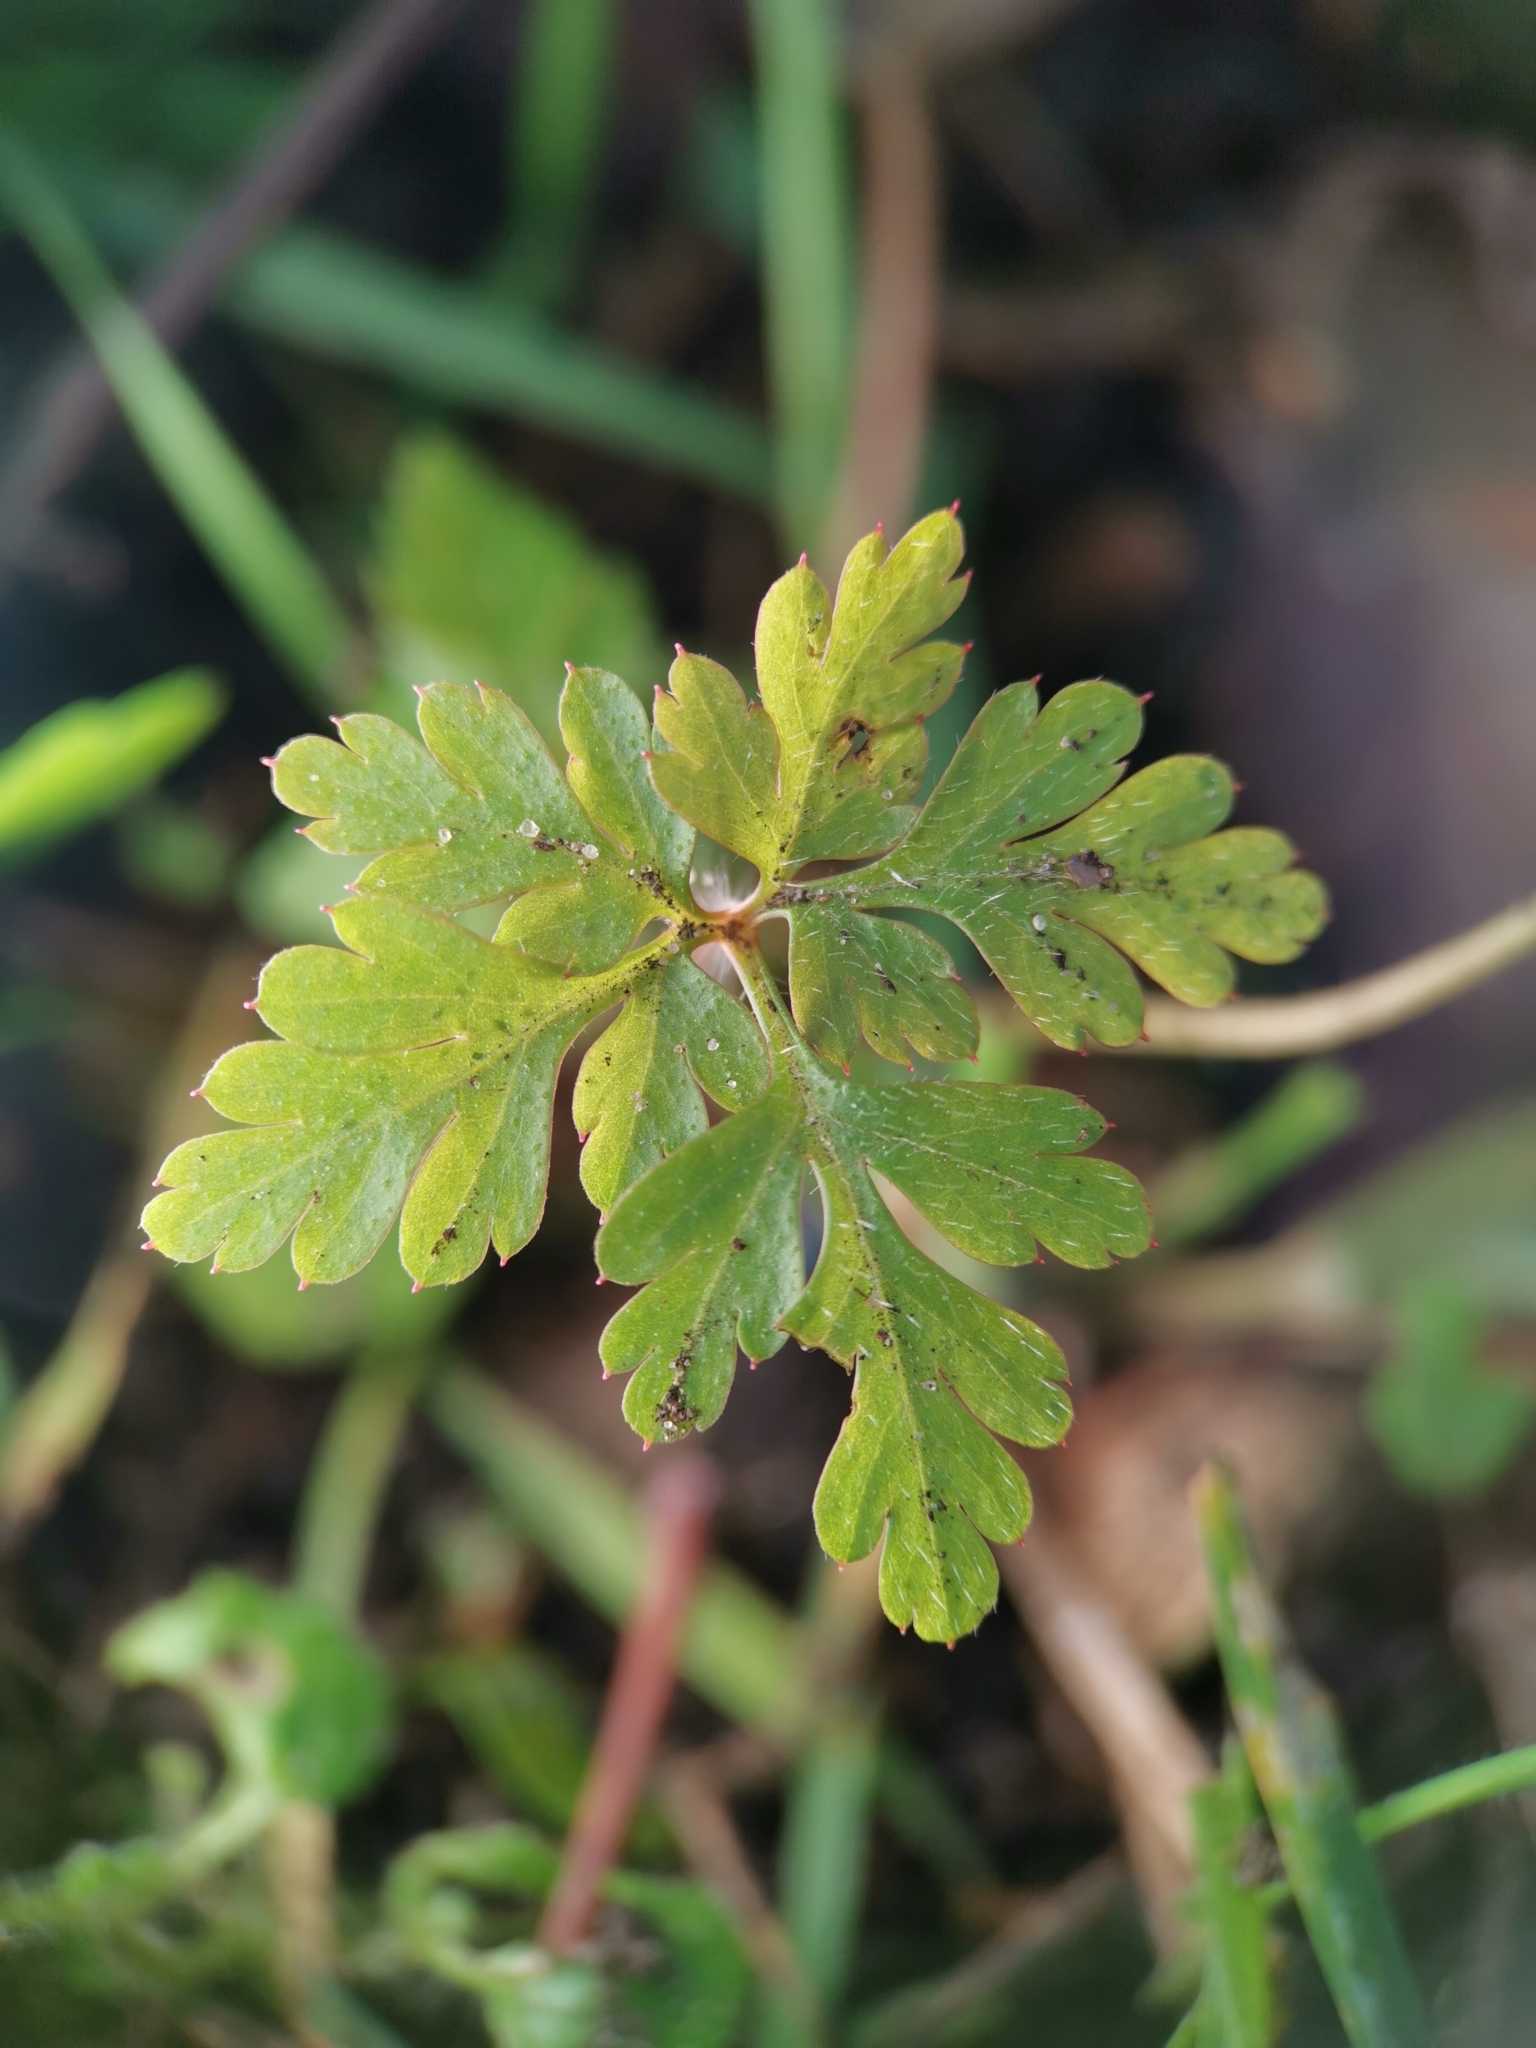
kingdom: Plantae
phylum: Tracheophyta
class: Magnoliopsida
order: Geraniales
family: Geraniaceae
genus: Geranium
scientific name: Geranium robertianum
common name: Herb-robert
